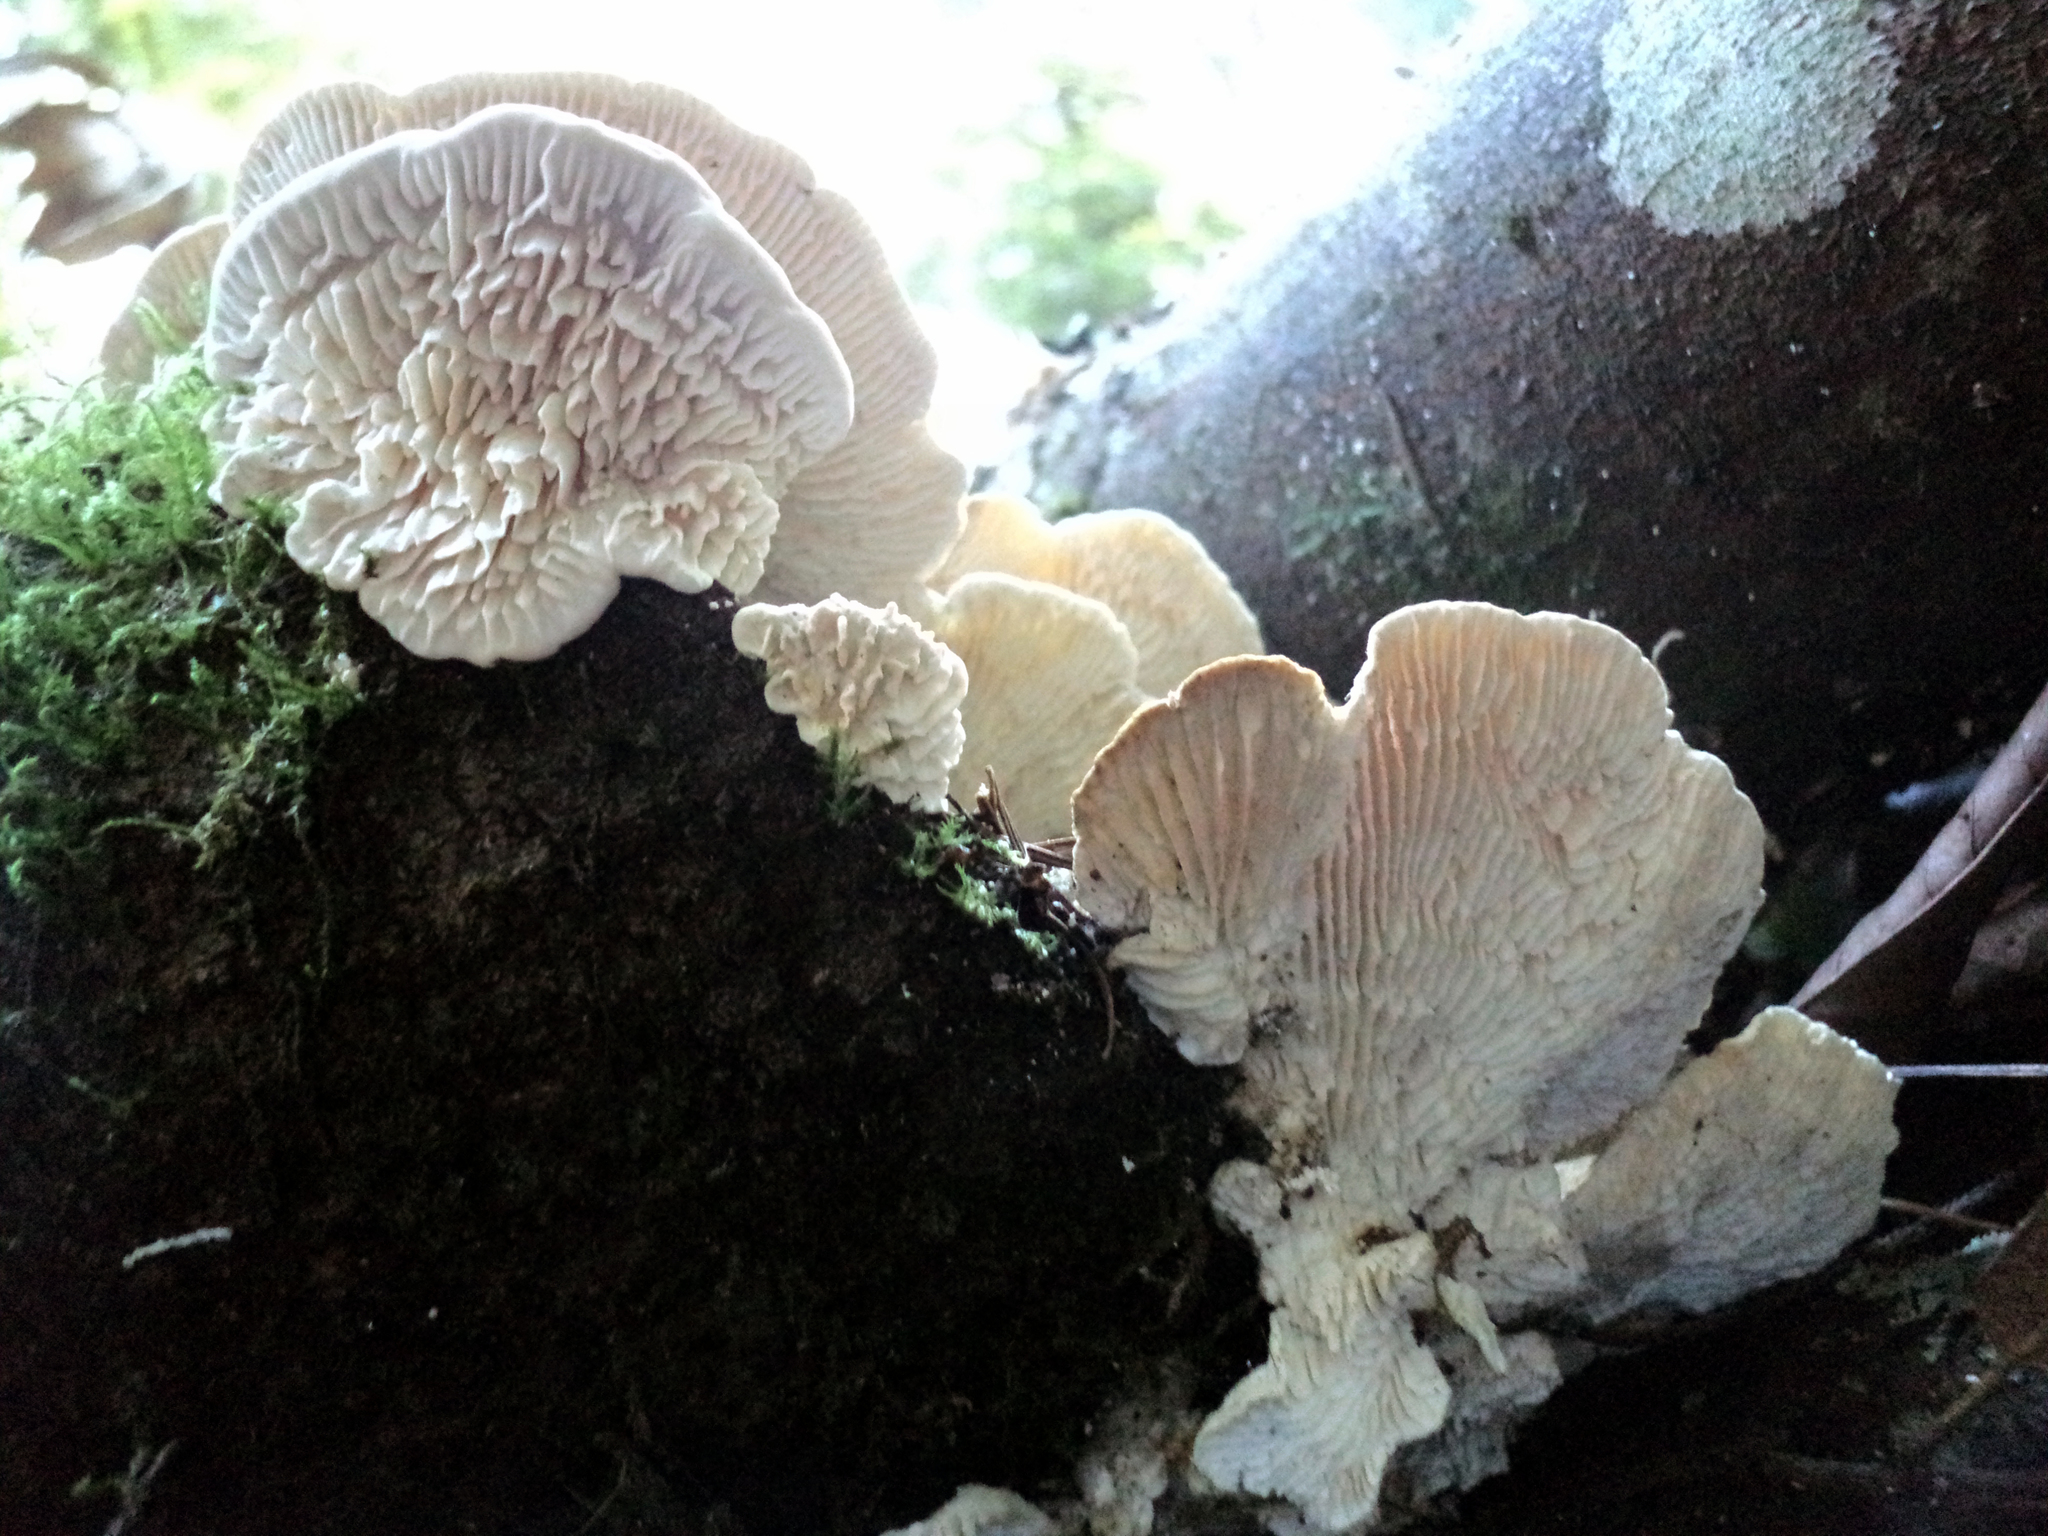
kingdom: Fungi
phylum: Basidiomycota
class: Agaricomycetes
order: Polyporales
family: Polyporaceae
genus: Lenzites
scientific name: Lenzites betulinus
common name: Birch mazegill
